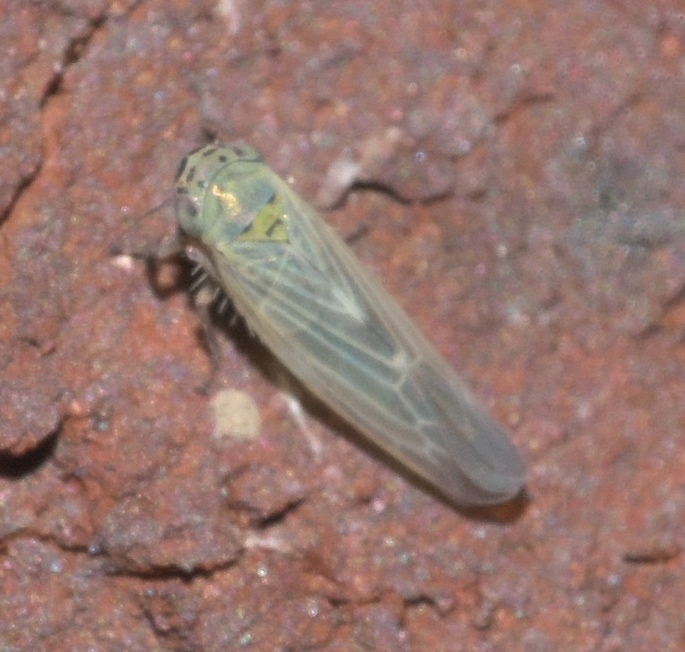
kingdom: Animalia
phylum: Arthropoda
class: Insecta
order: Hemiptera
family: Cicadellidae
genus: Macrosteles
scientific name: Macrosteles quadrilineatus
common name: Aster leafhopper
